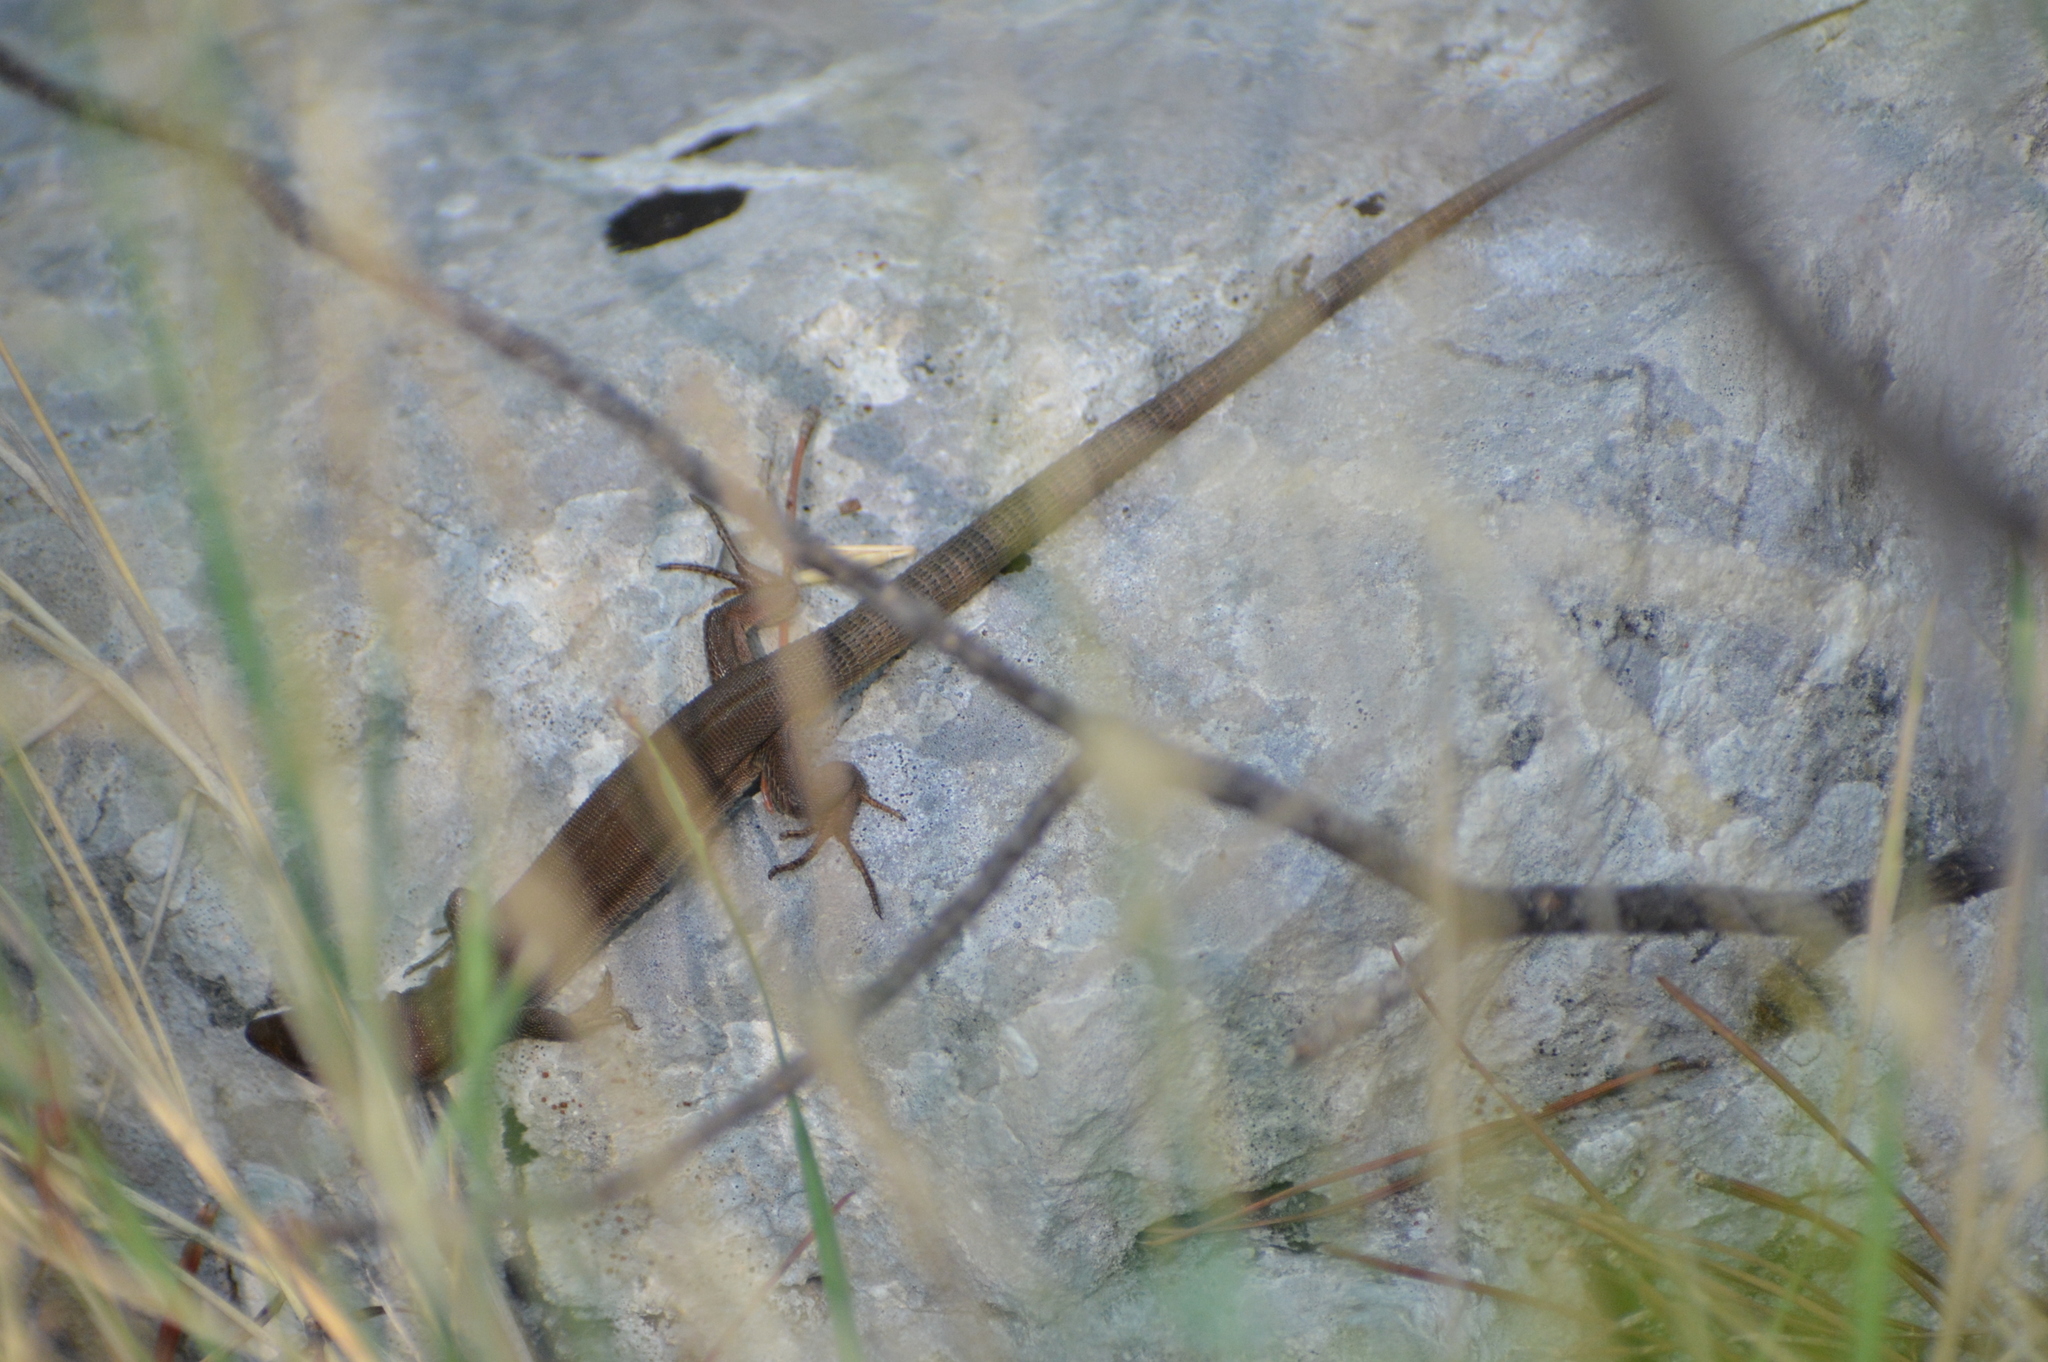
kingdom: Animalia
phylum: Chordata
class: Squamata
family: Lacertidae
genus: Podarcis
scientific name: Podarcis melisellensis
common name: Dalmatian wall lizard
